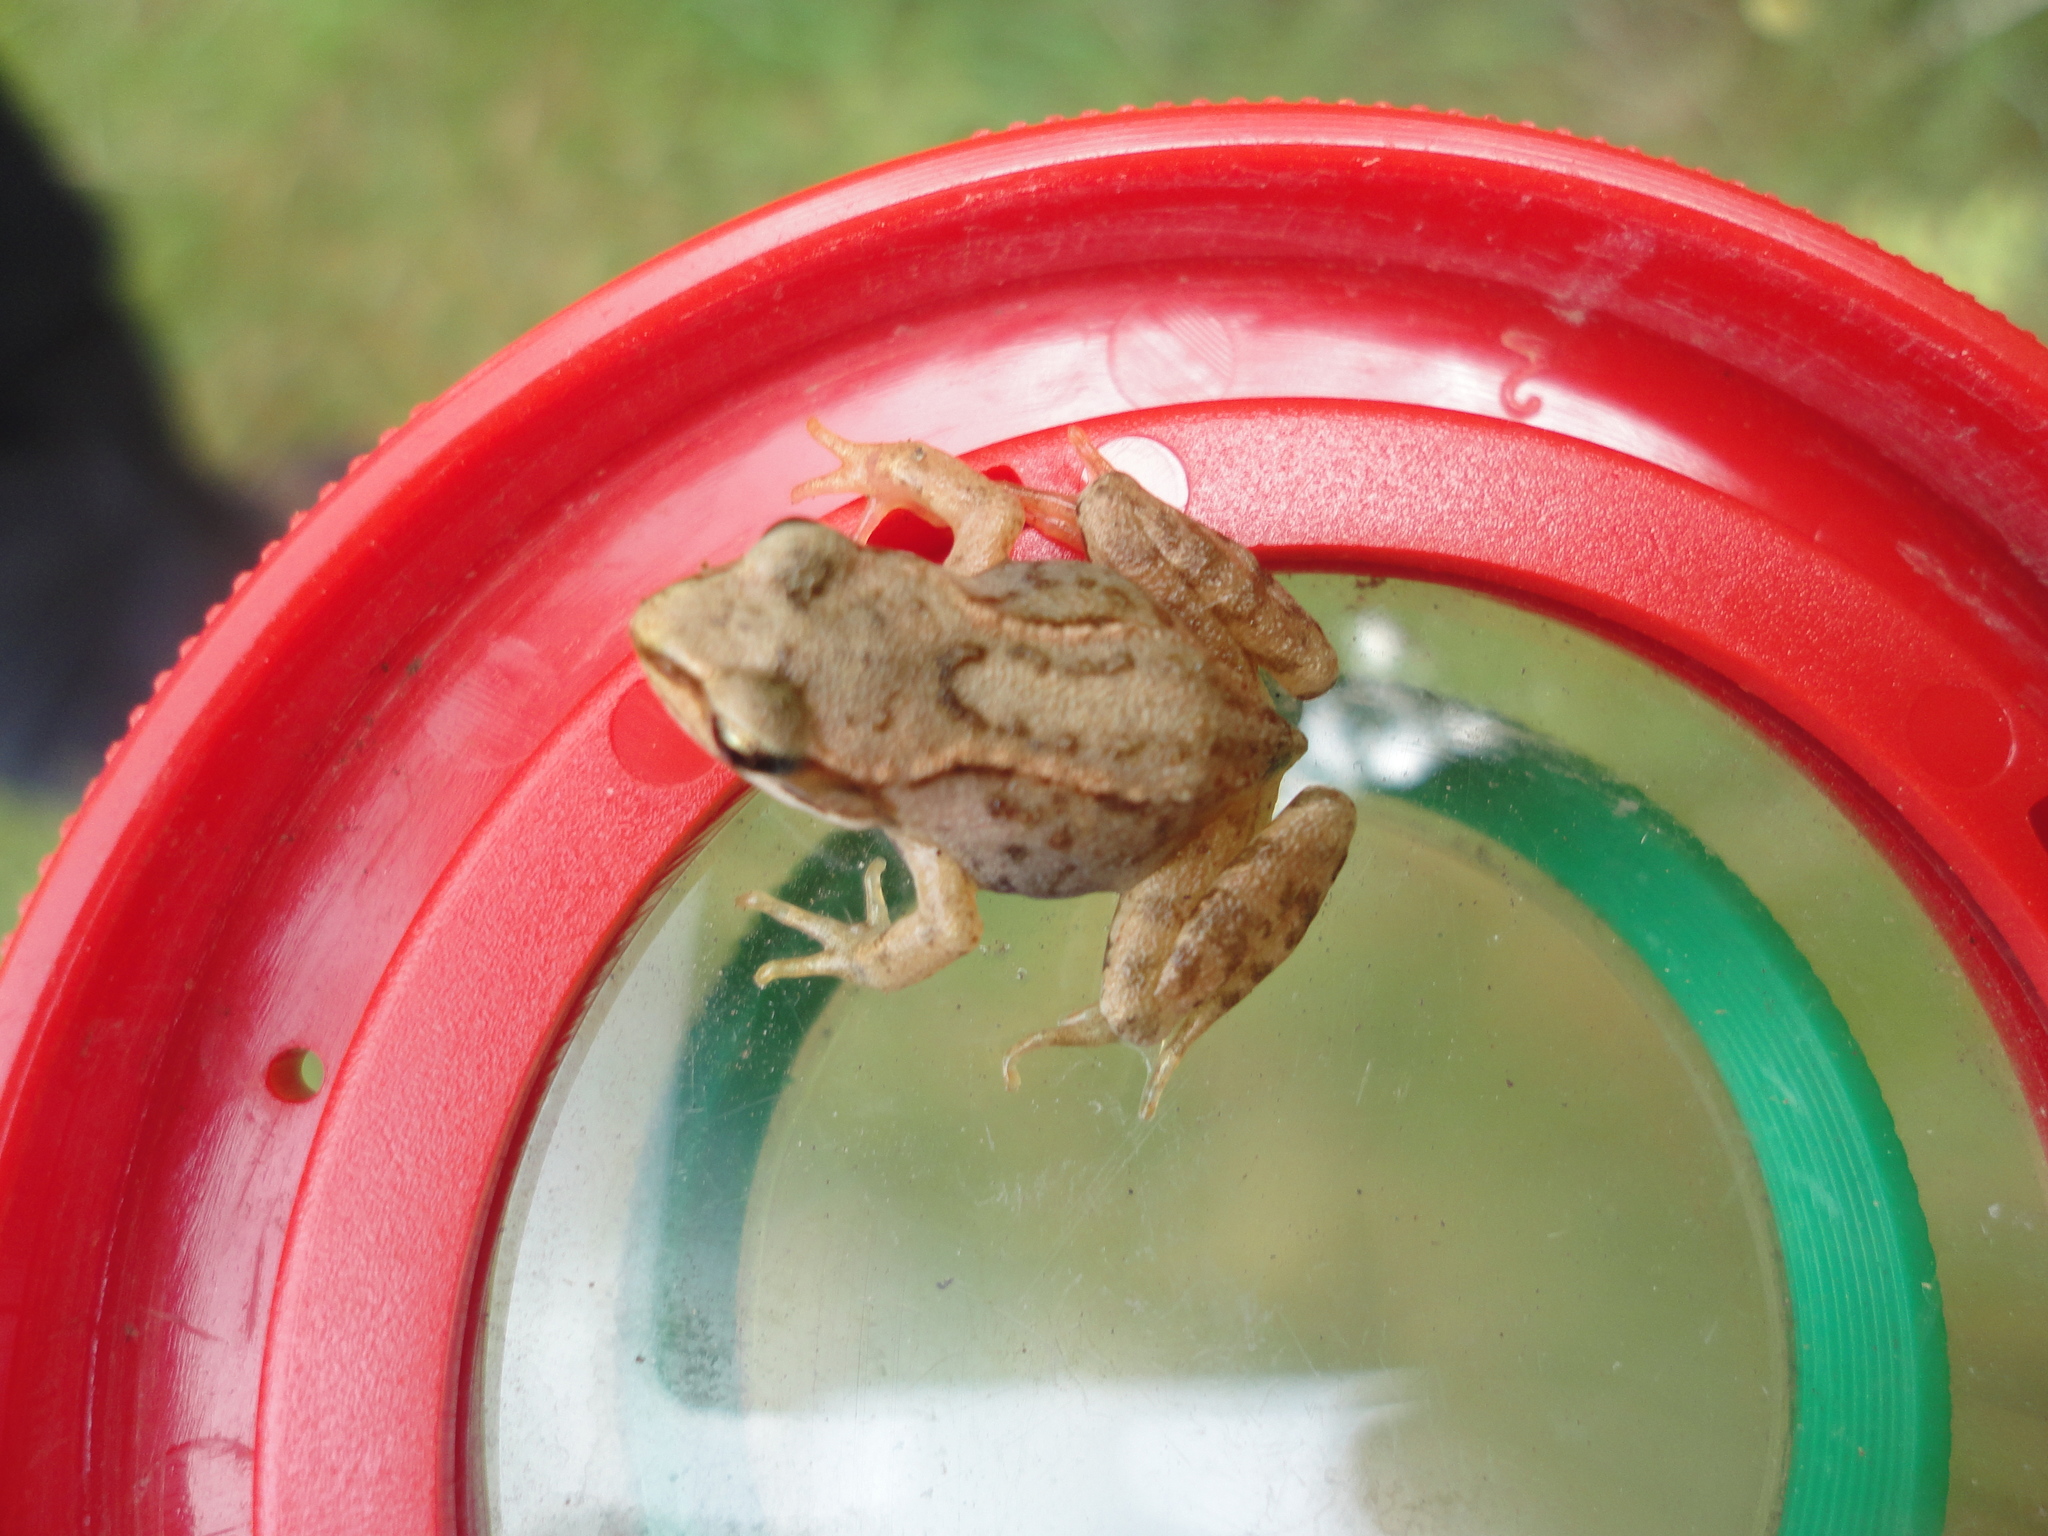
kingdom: Animalia
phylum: Chordata
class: Amphibia
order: Anura
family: Ranidae
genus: Rana
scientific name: Rana temporaria
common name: Common frog
